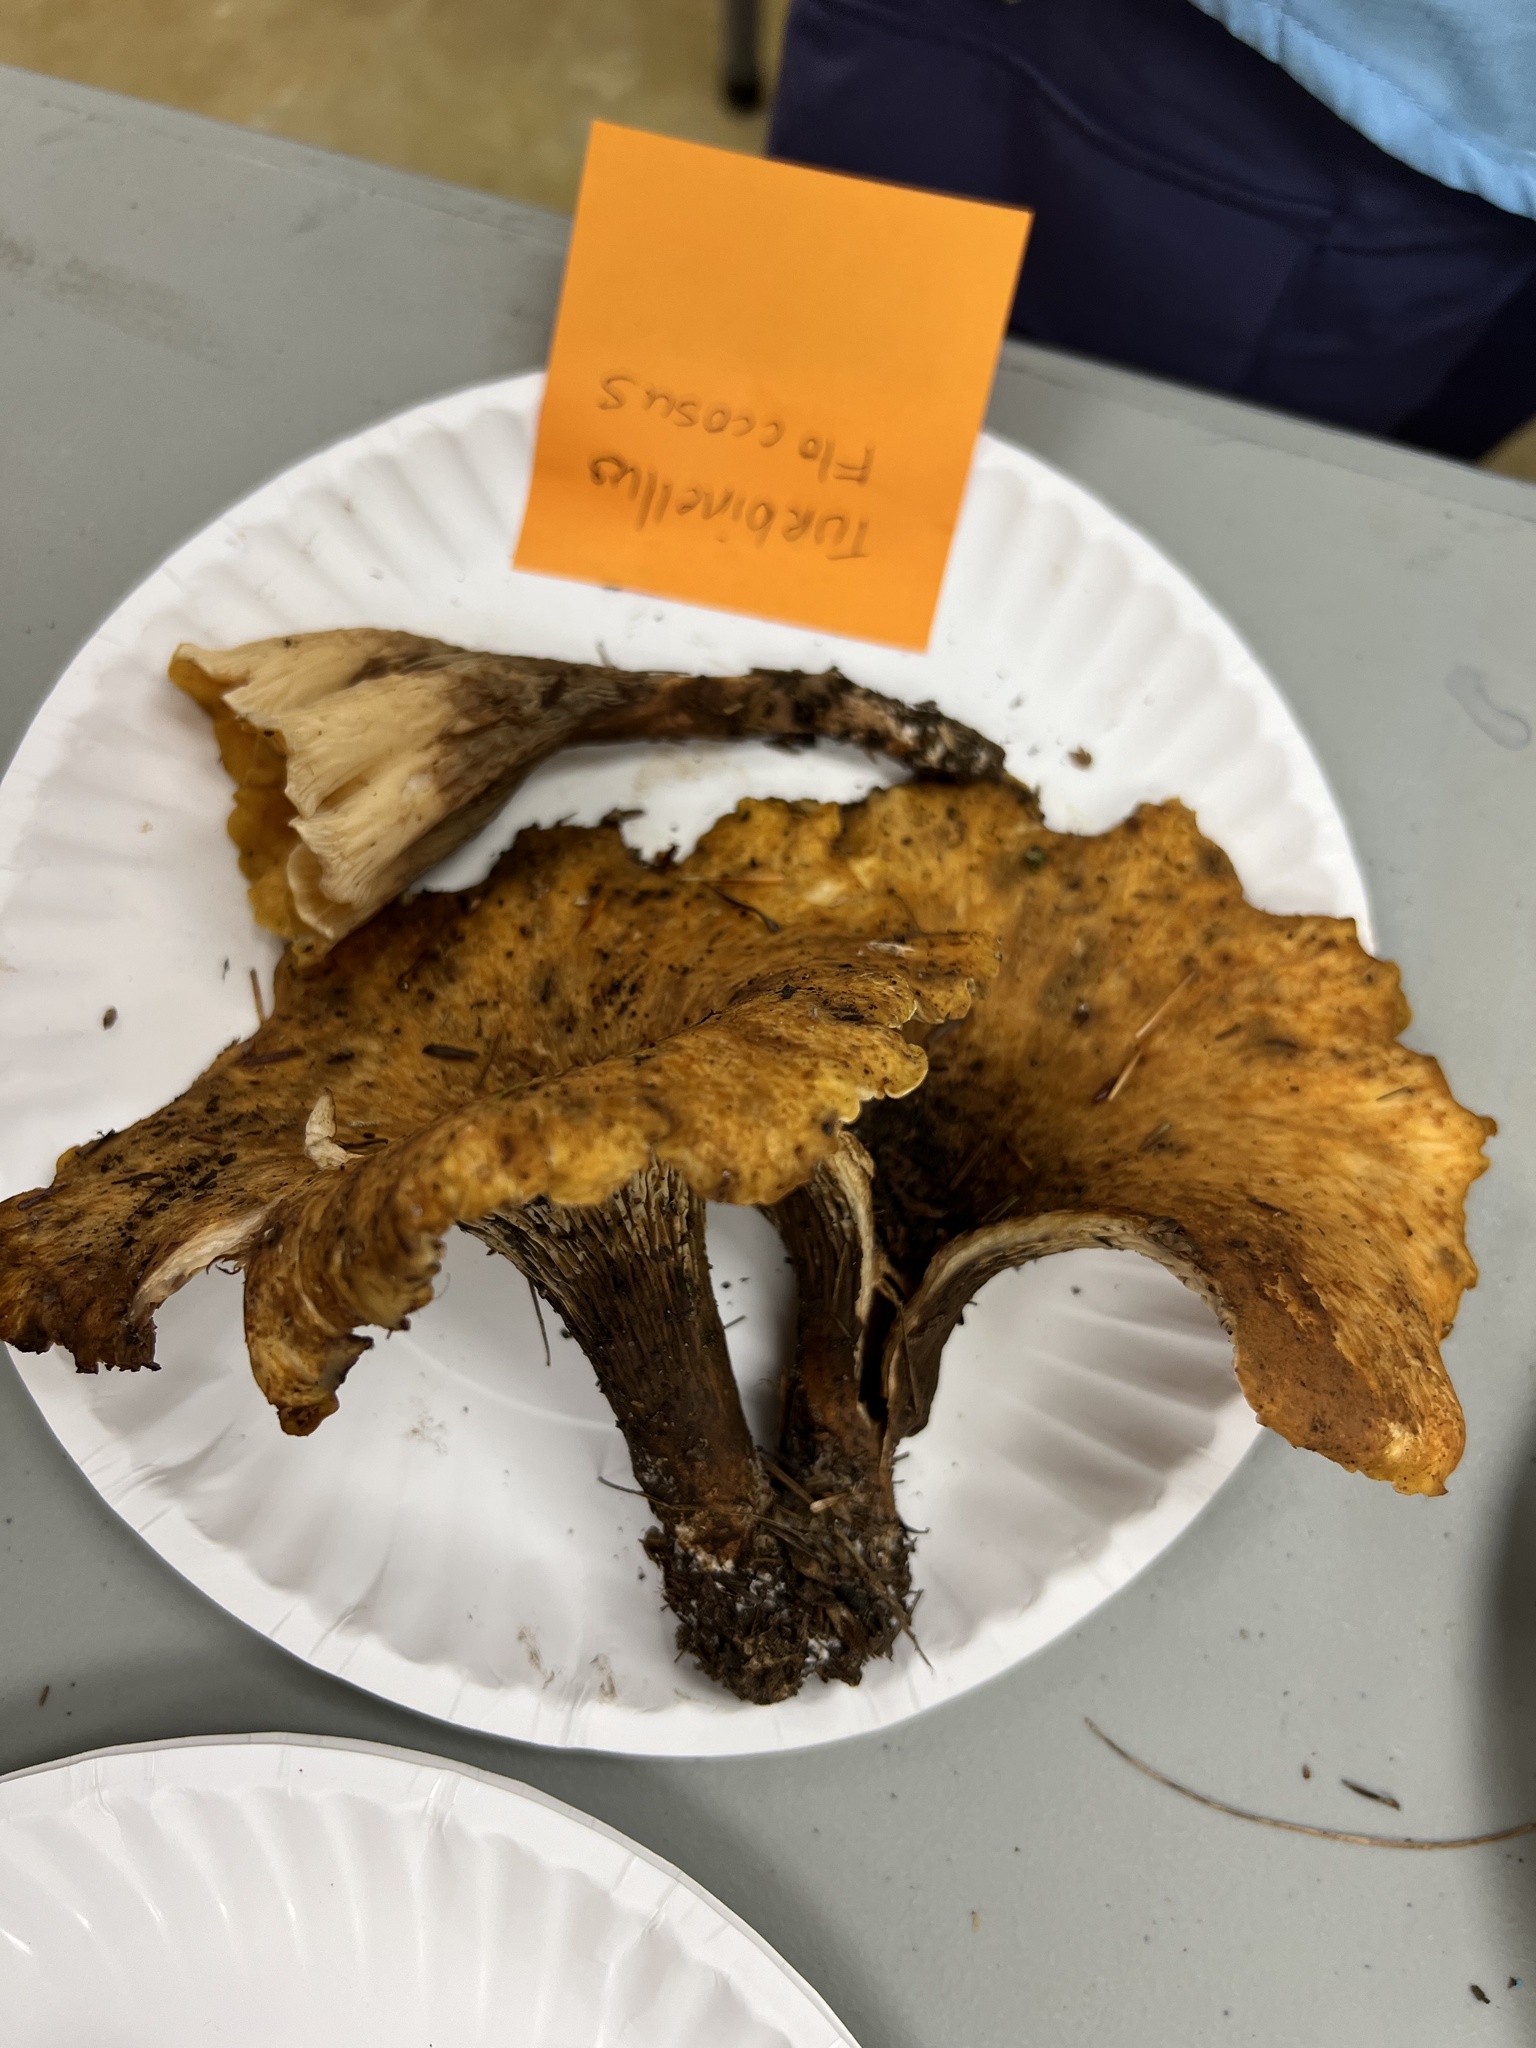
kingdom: Fungi
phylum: Basidiomycota
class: Agaricomycetes
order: Gomphales
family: Gomphaceae
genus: Turbinellus
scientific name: Turbinellus floccosus
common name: Scaly chanterelle
